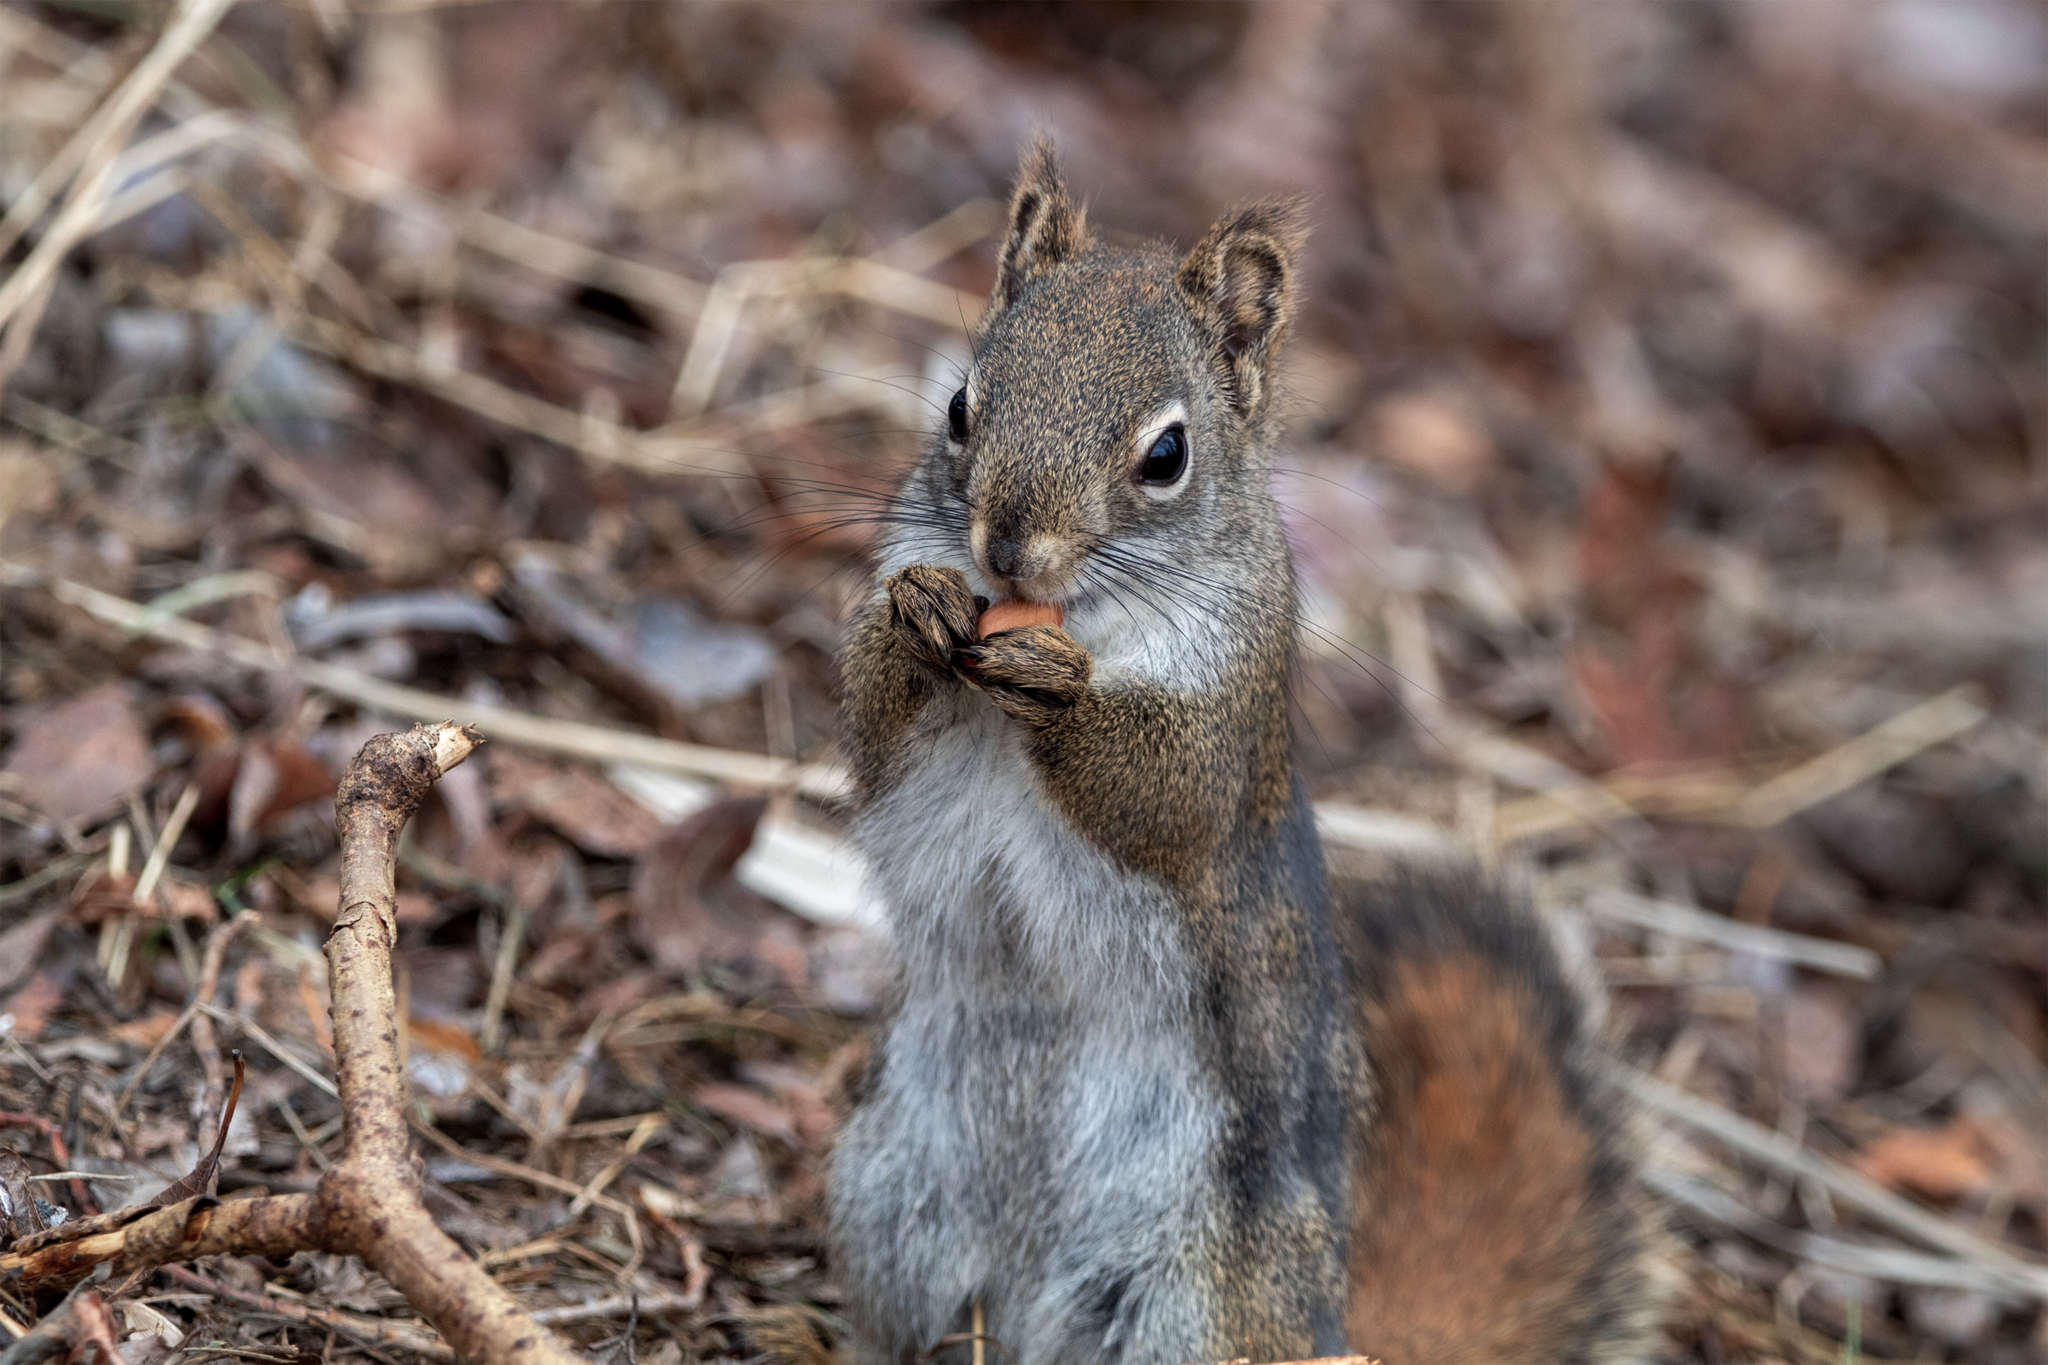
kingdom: Animalia
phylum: Chordata
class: Mammalia
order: Rodentia
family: Sciuridae
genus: Tamiasciurus
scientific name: Tamiasciurus hudsonicus
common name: Red squirrel
